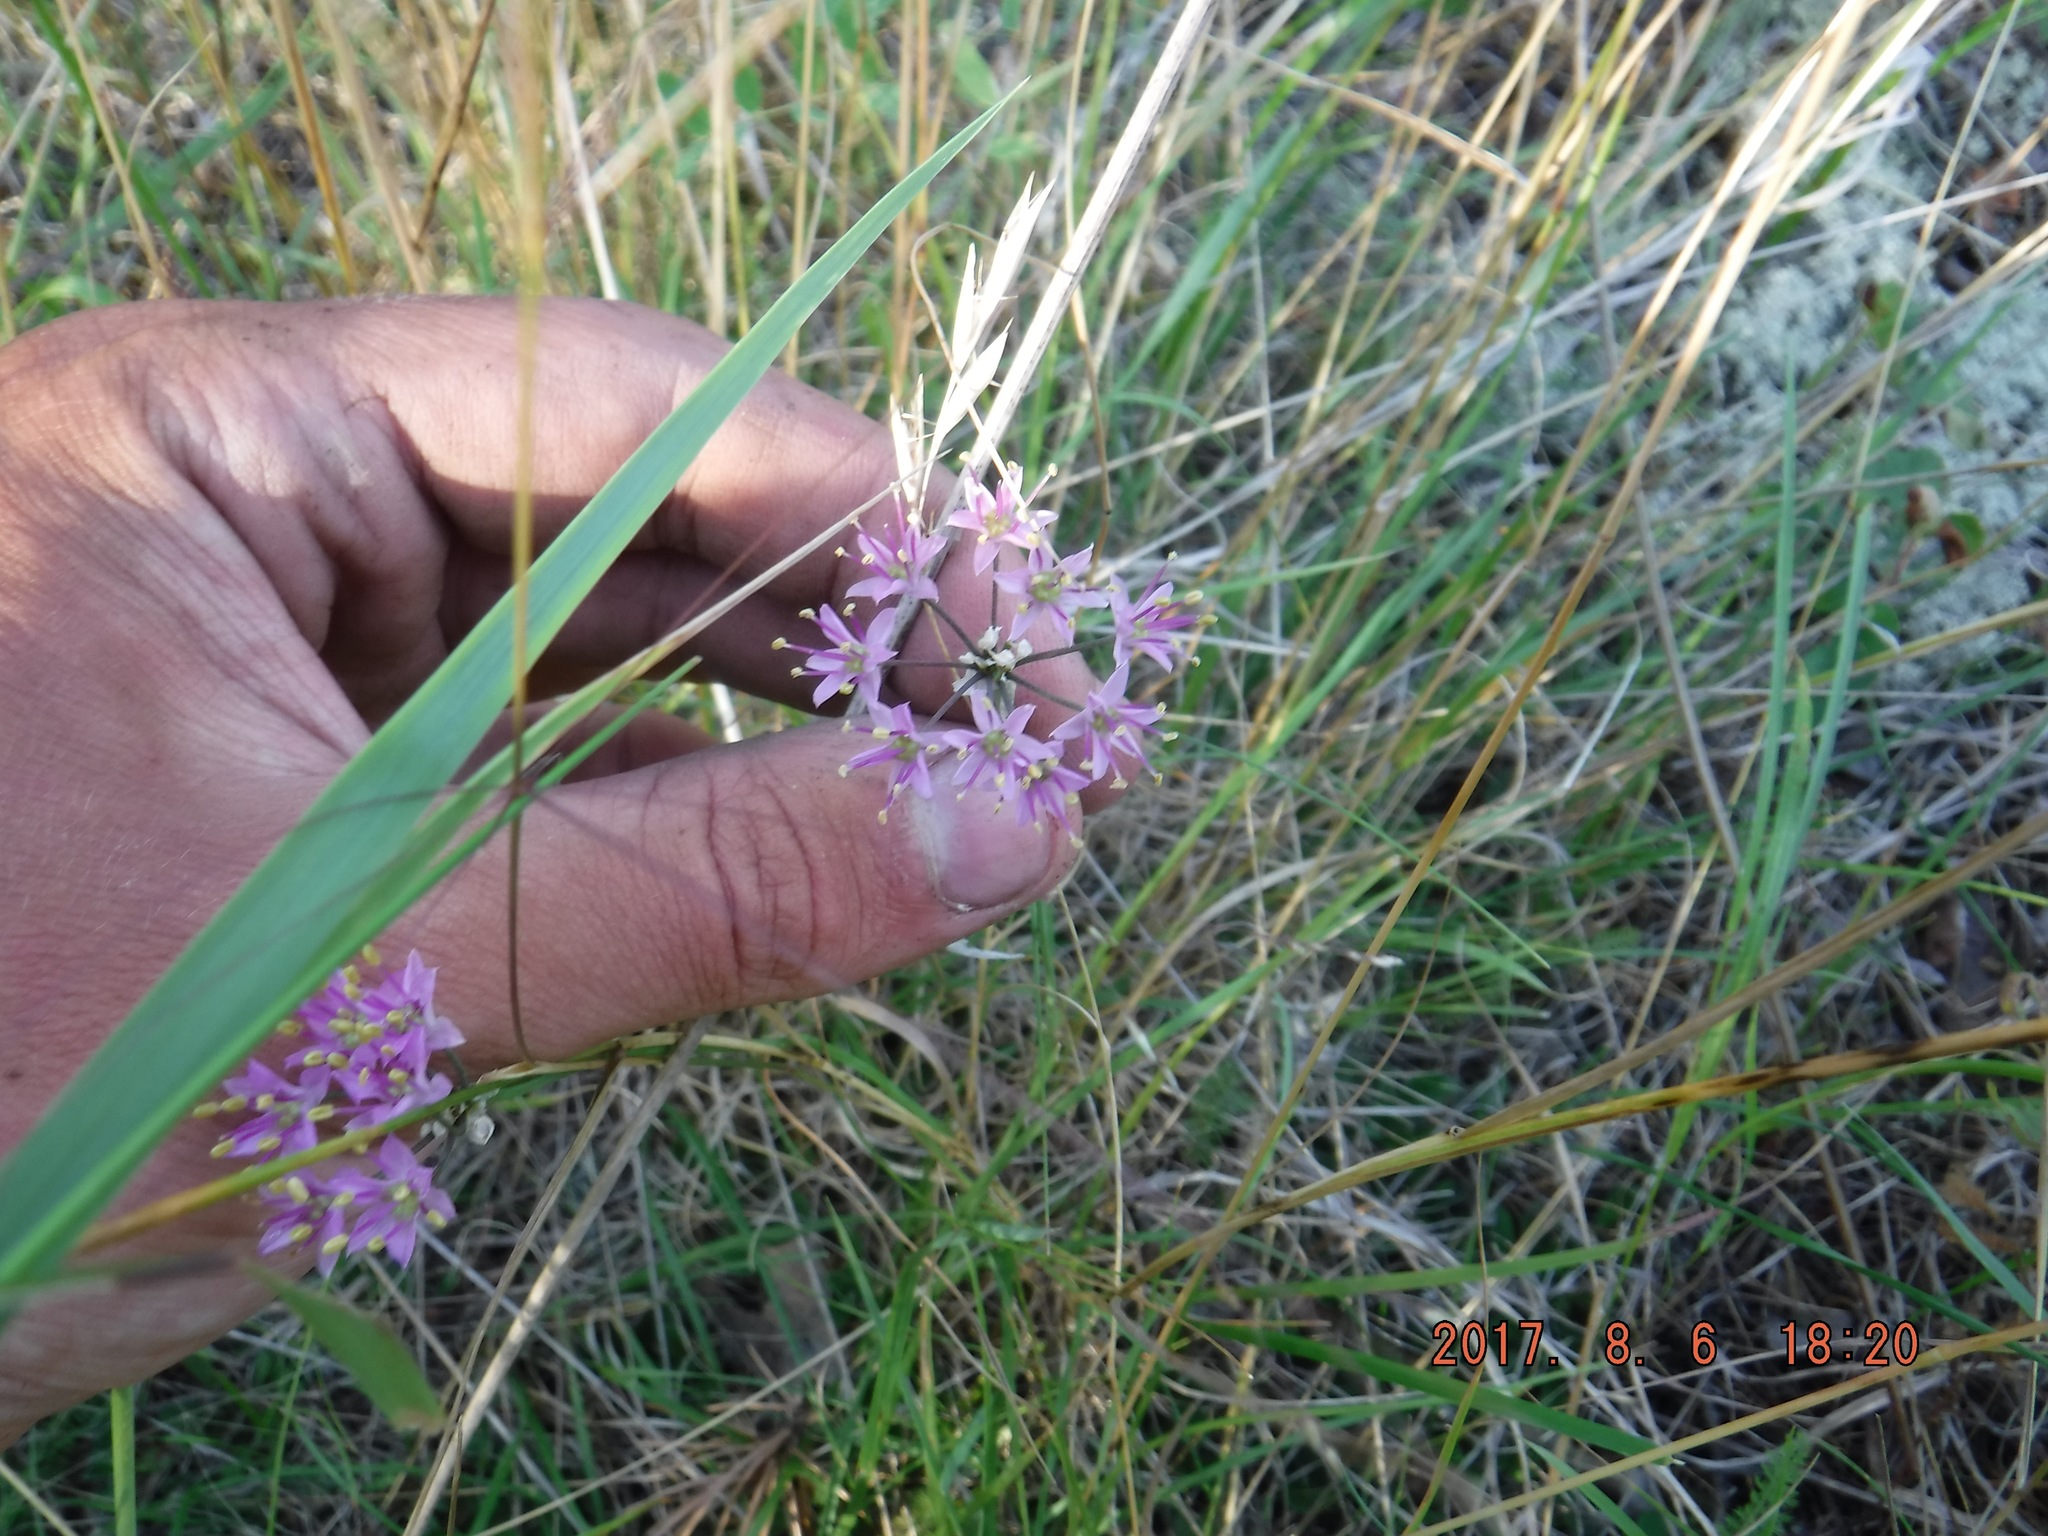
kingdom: Plantae
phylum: Tracheophyta
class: Liliopsida
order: Asparagales
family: Amaryllidaceae
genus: Allium
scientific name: Allium stellatum
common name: Autumn onion
